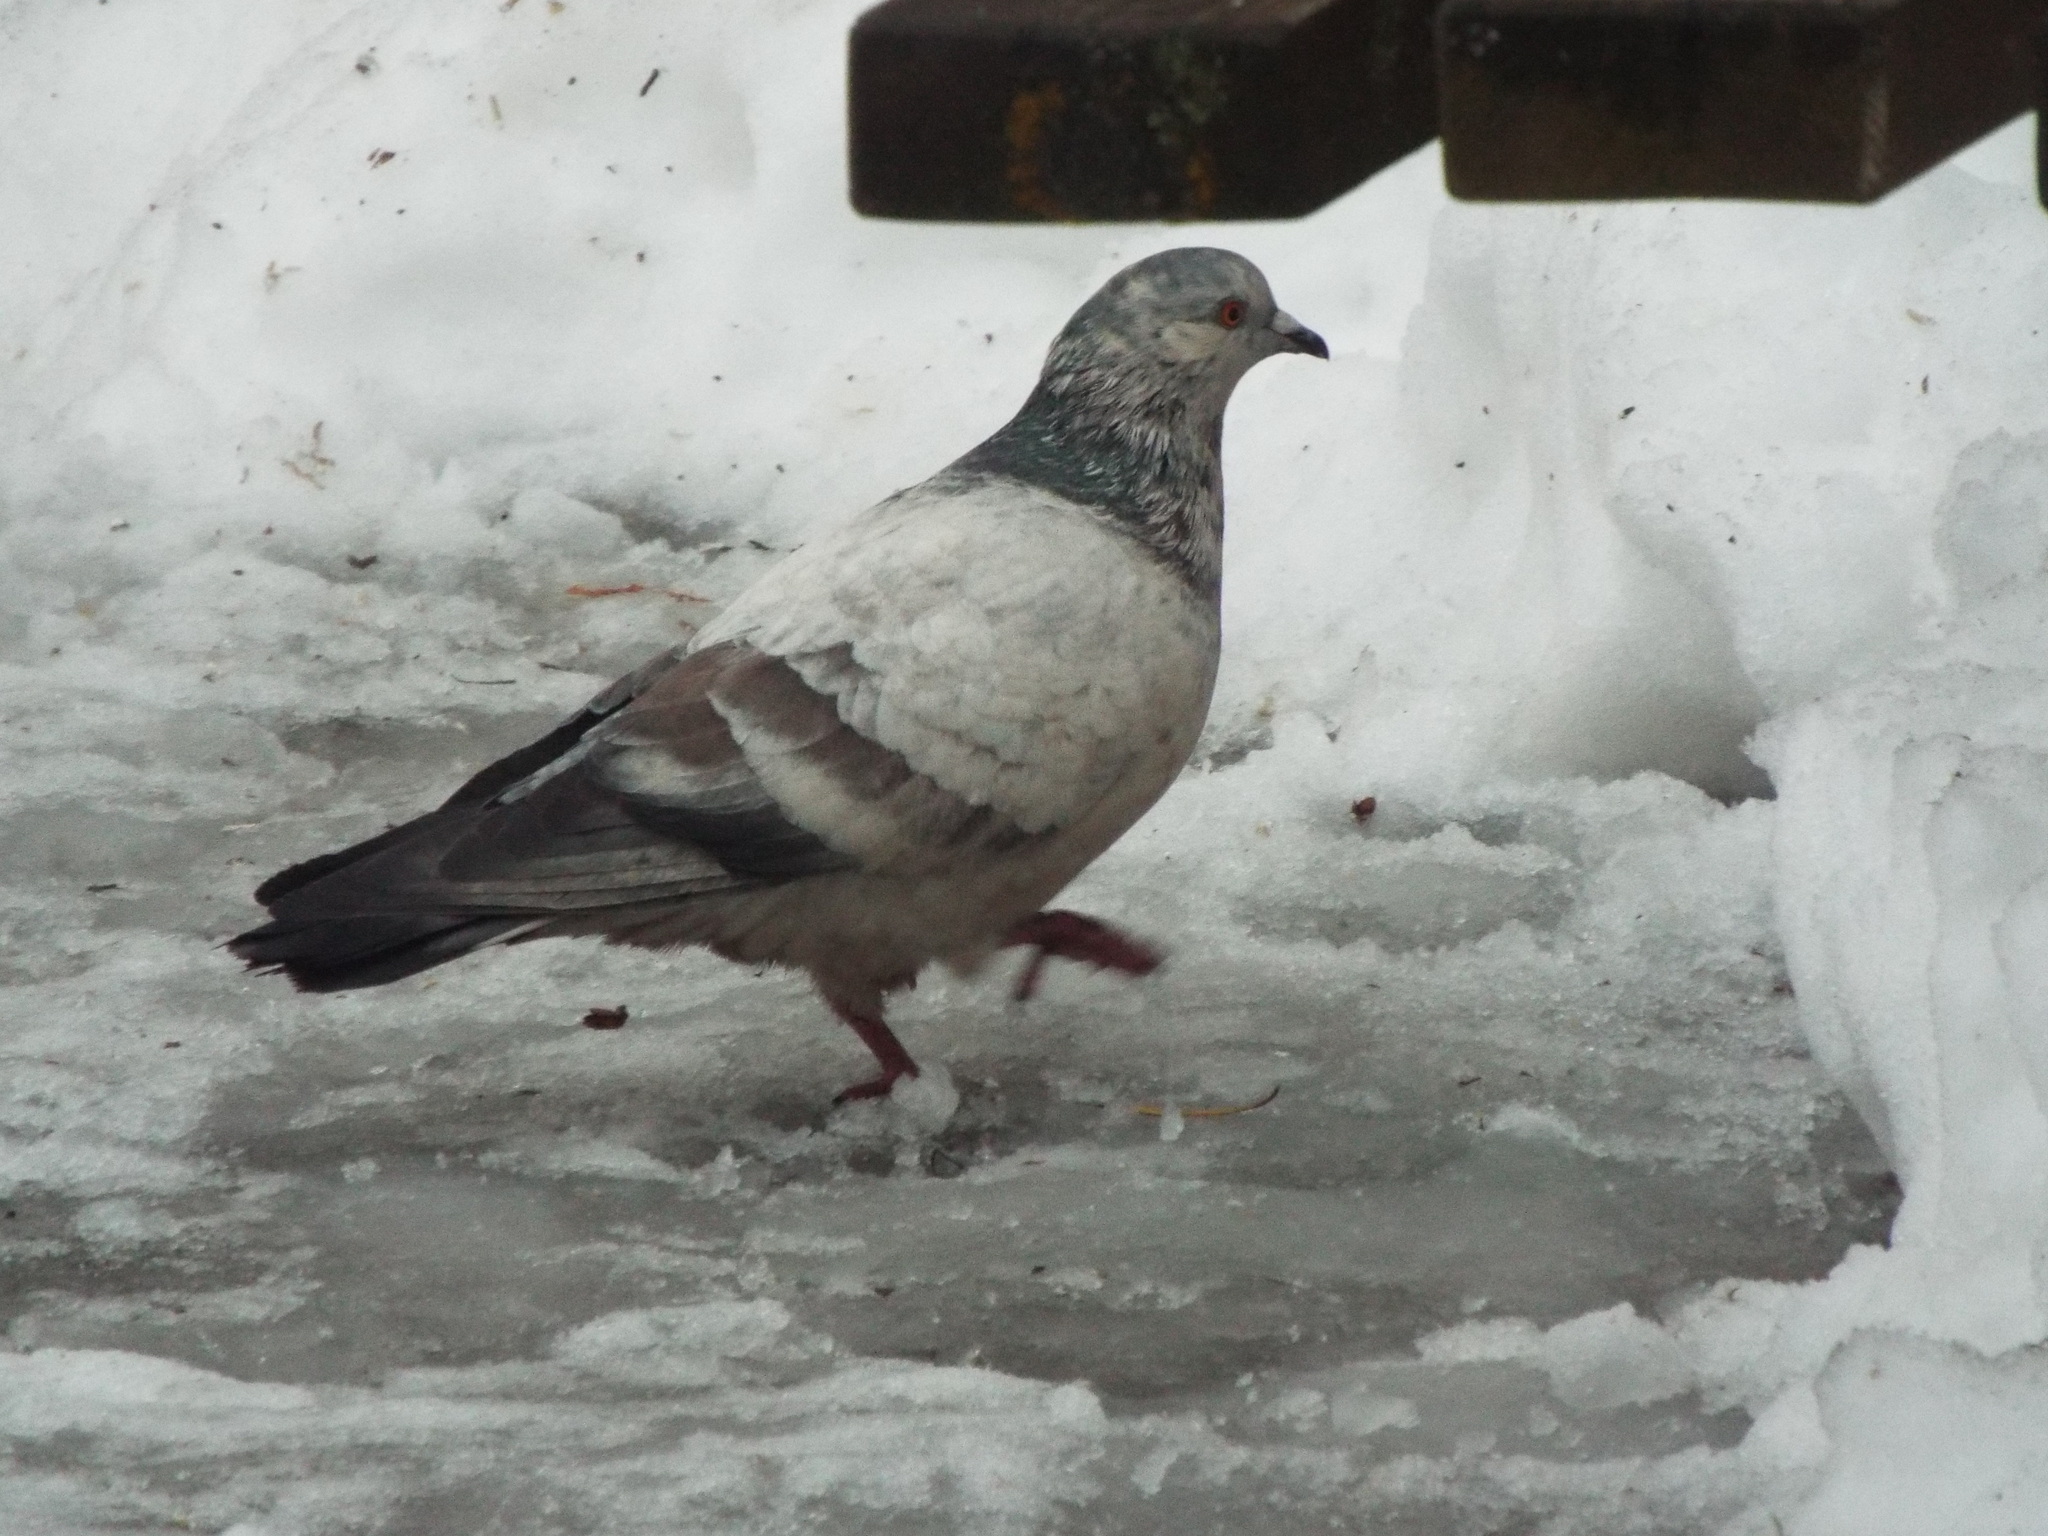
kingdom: Animalia
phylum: Chordata
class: Aves
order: Columbiformes
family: Columbidae
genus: Columba
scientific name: Columba livia
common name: Rock pigeon
